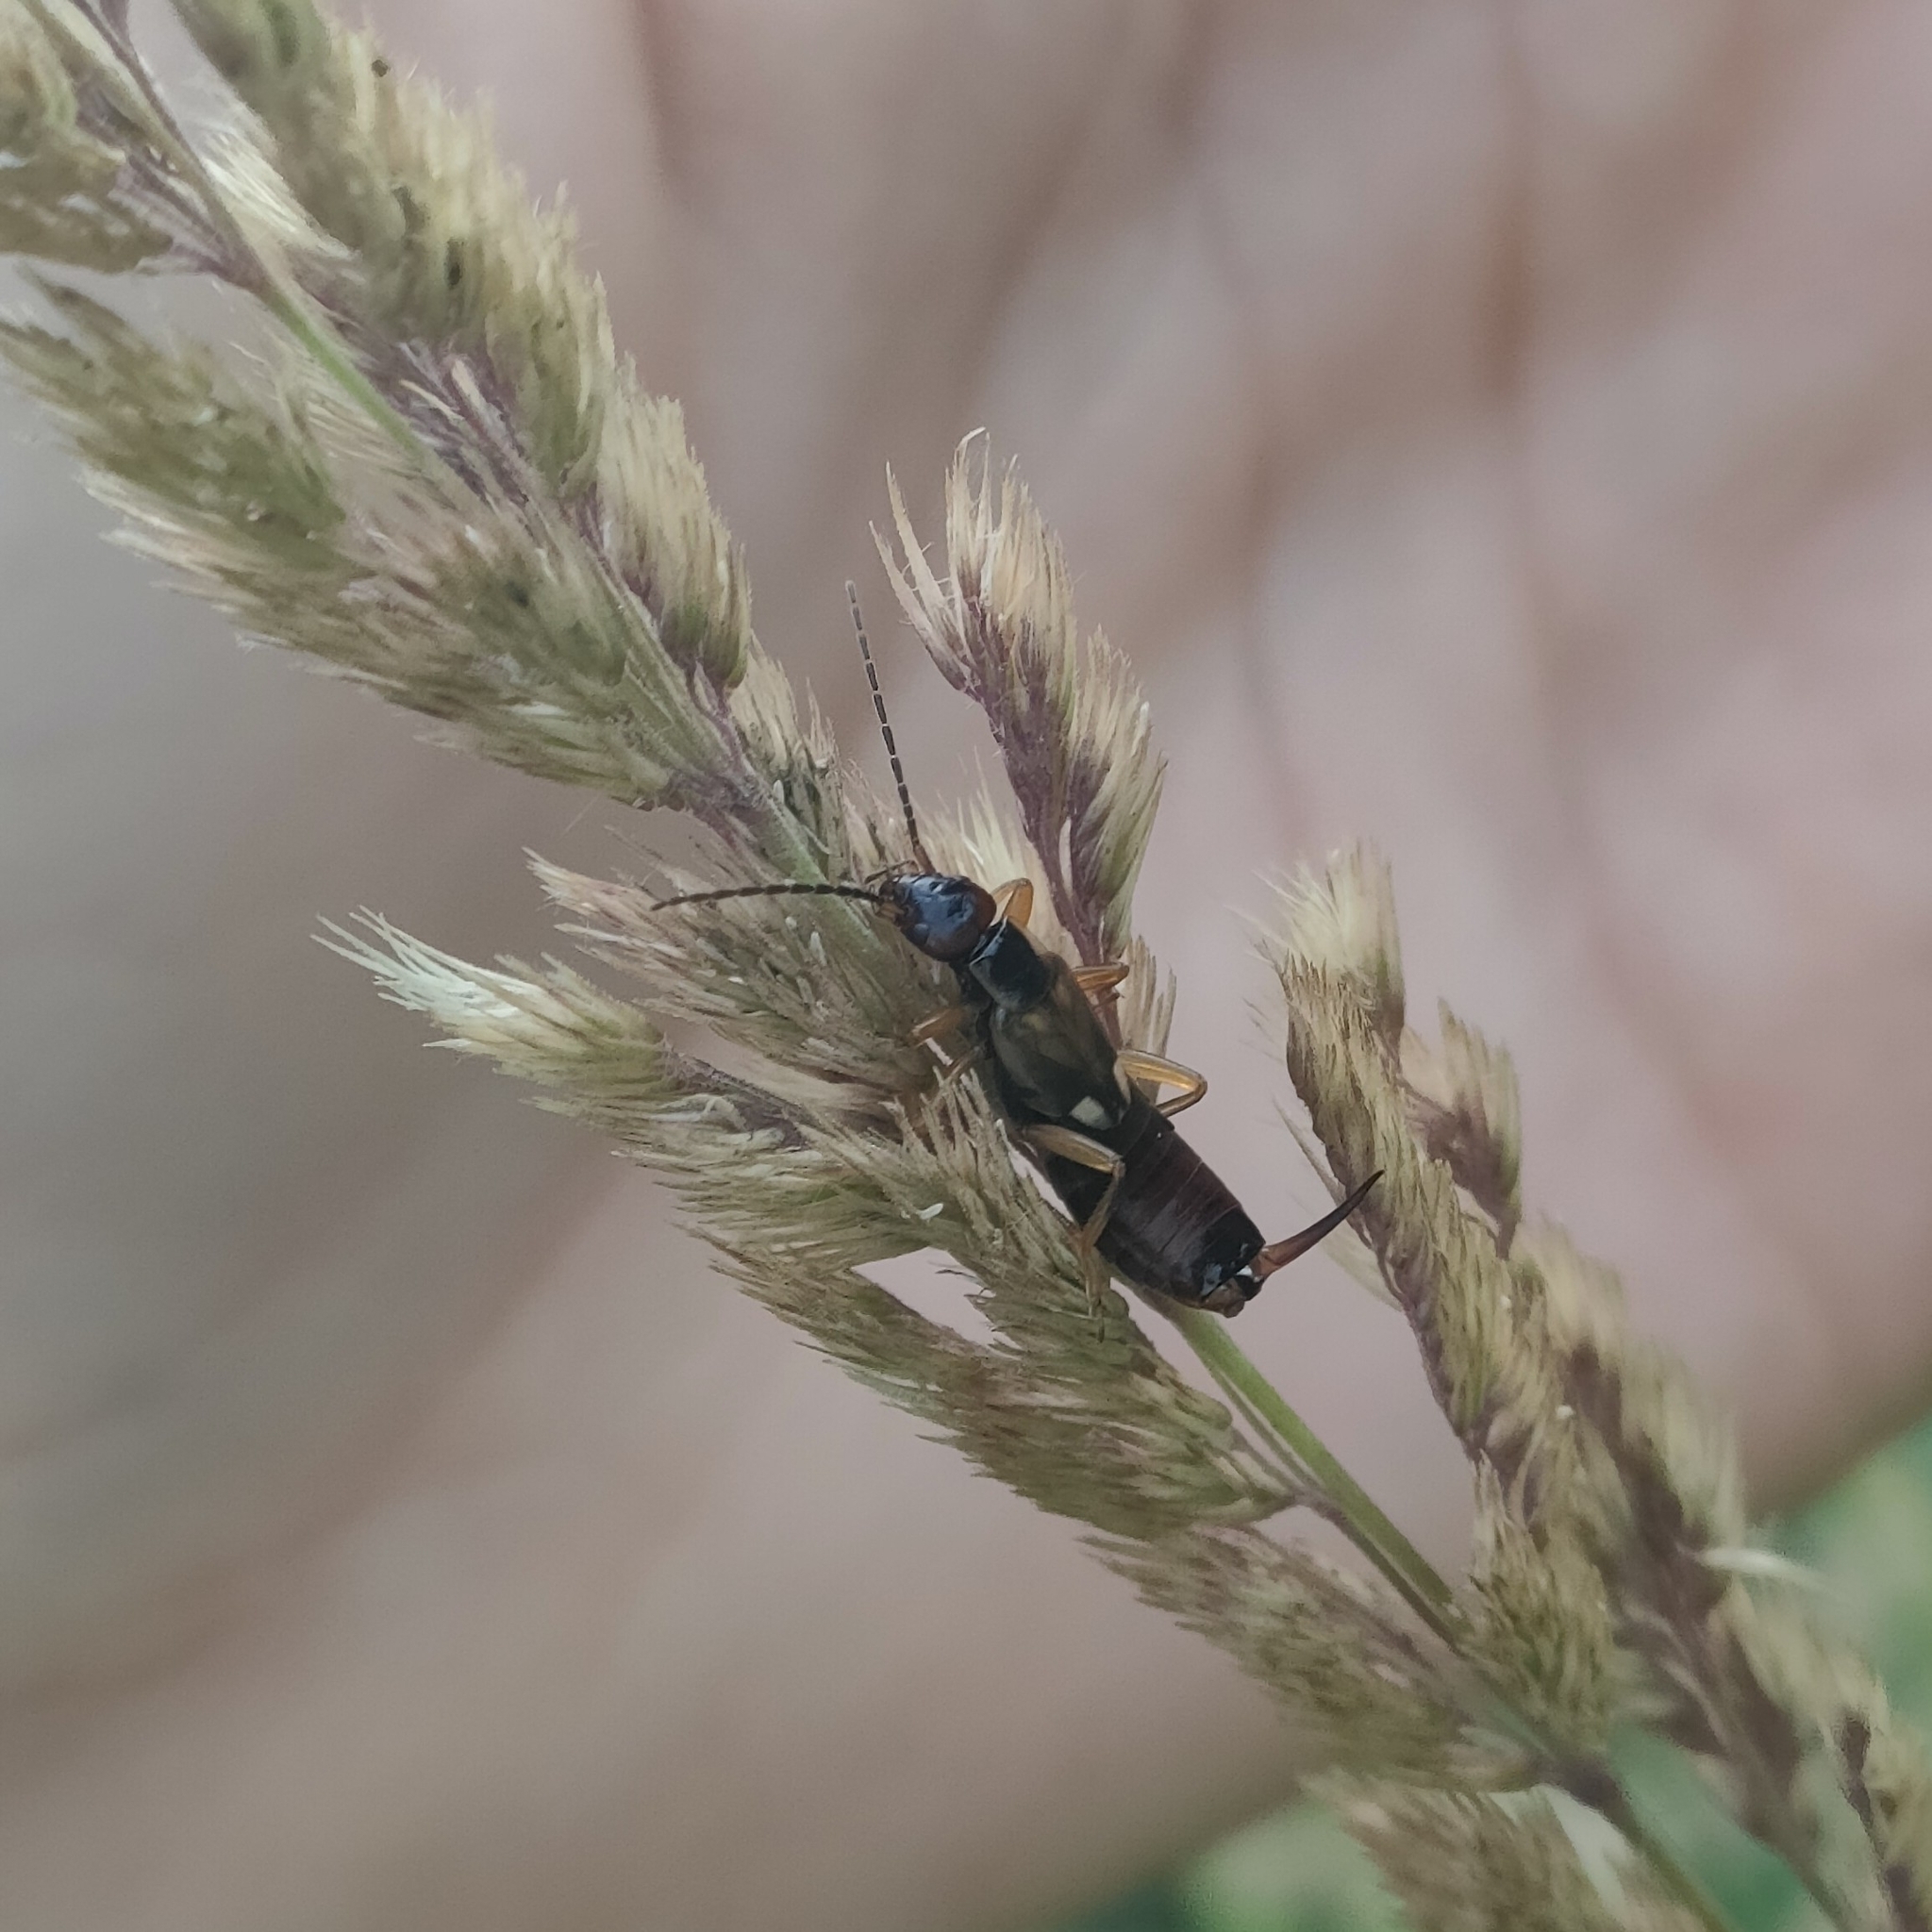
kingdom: Animalia
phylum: Arthropoda
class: Insecta
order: Dermaptera
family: Forficulidae
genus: Forficula
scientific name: Forficula
